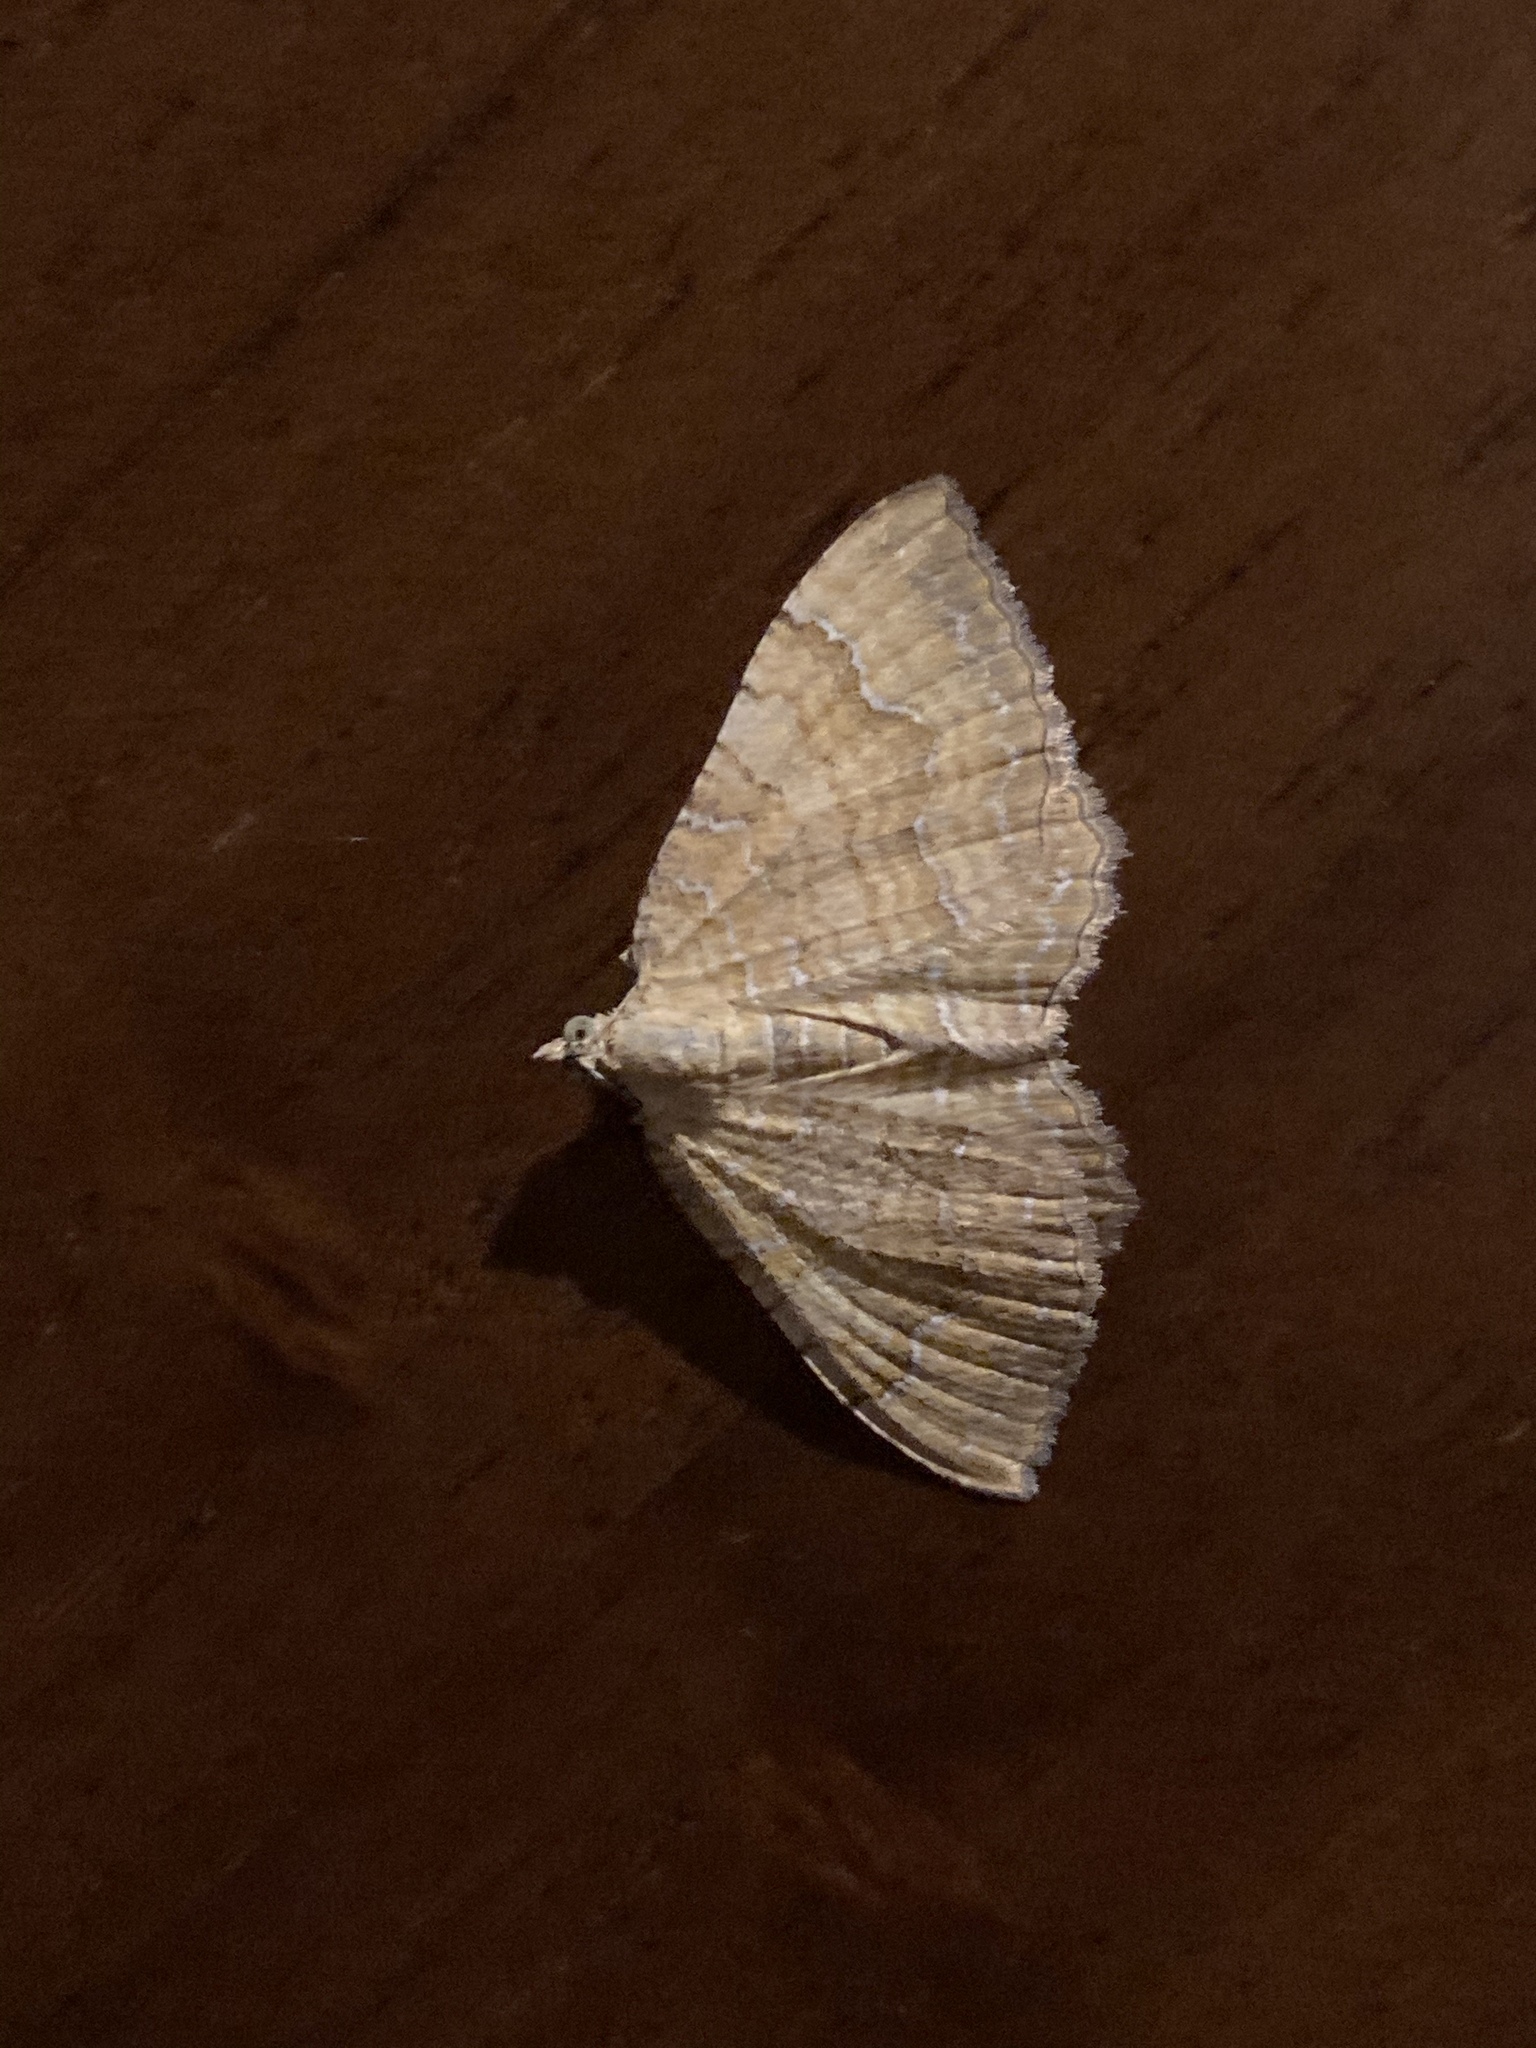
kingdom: Animalia
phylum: Arthropoda
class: Insecta
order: Lepidoptera
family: Geometridae
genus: Camptogramma
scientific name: Camptogramma bilineata
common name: Yellow shell
